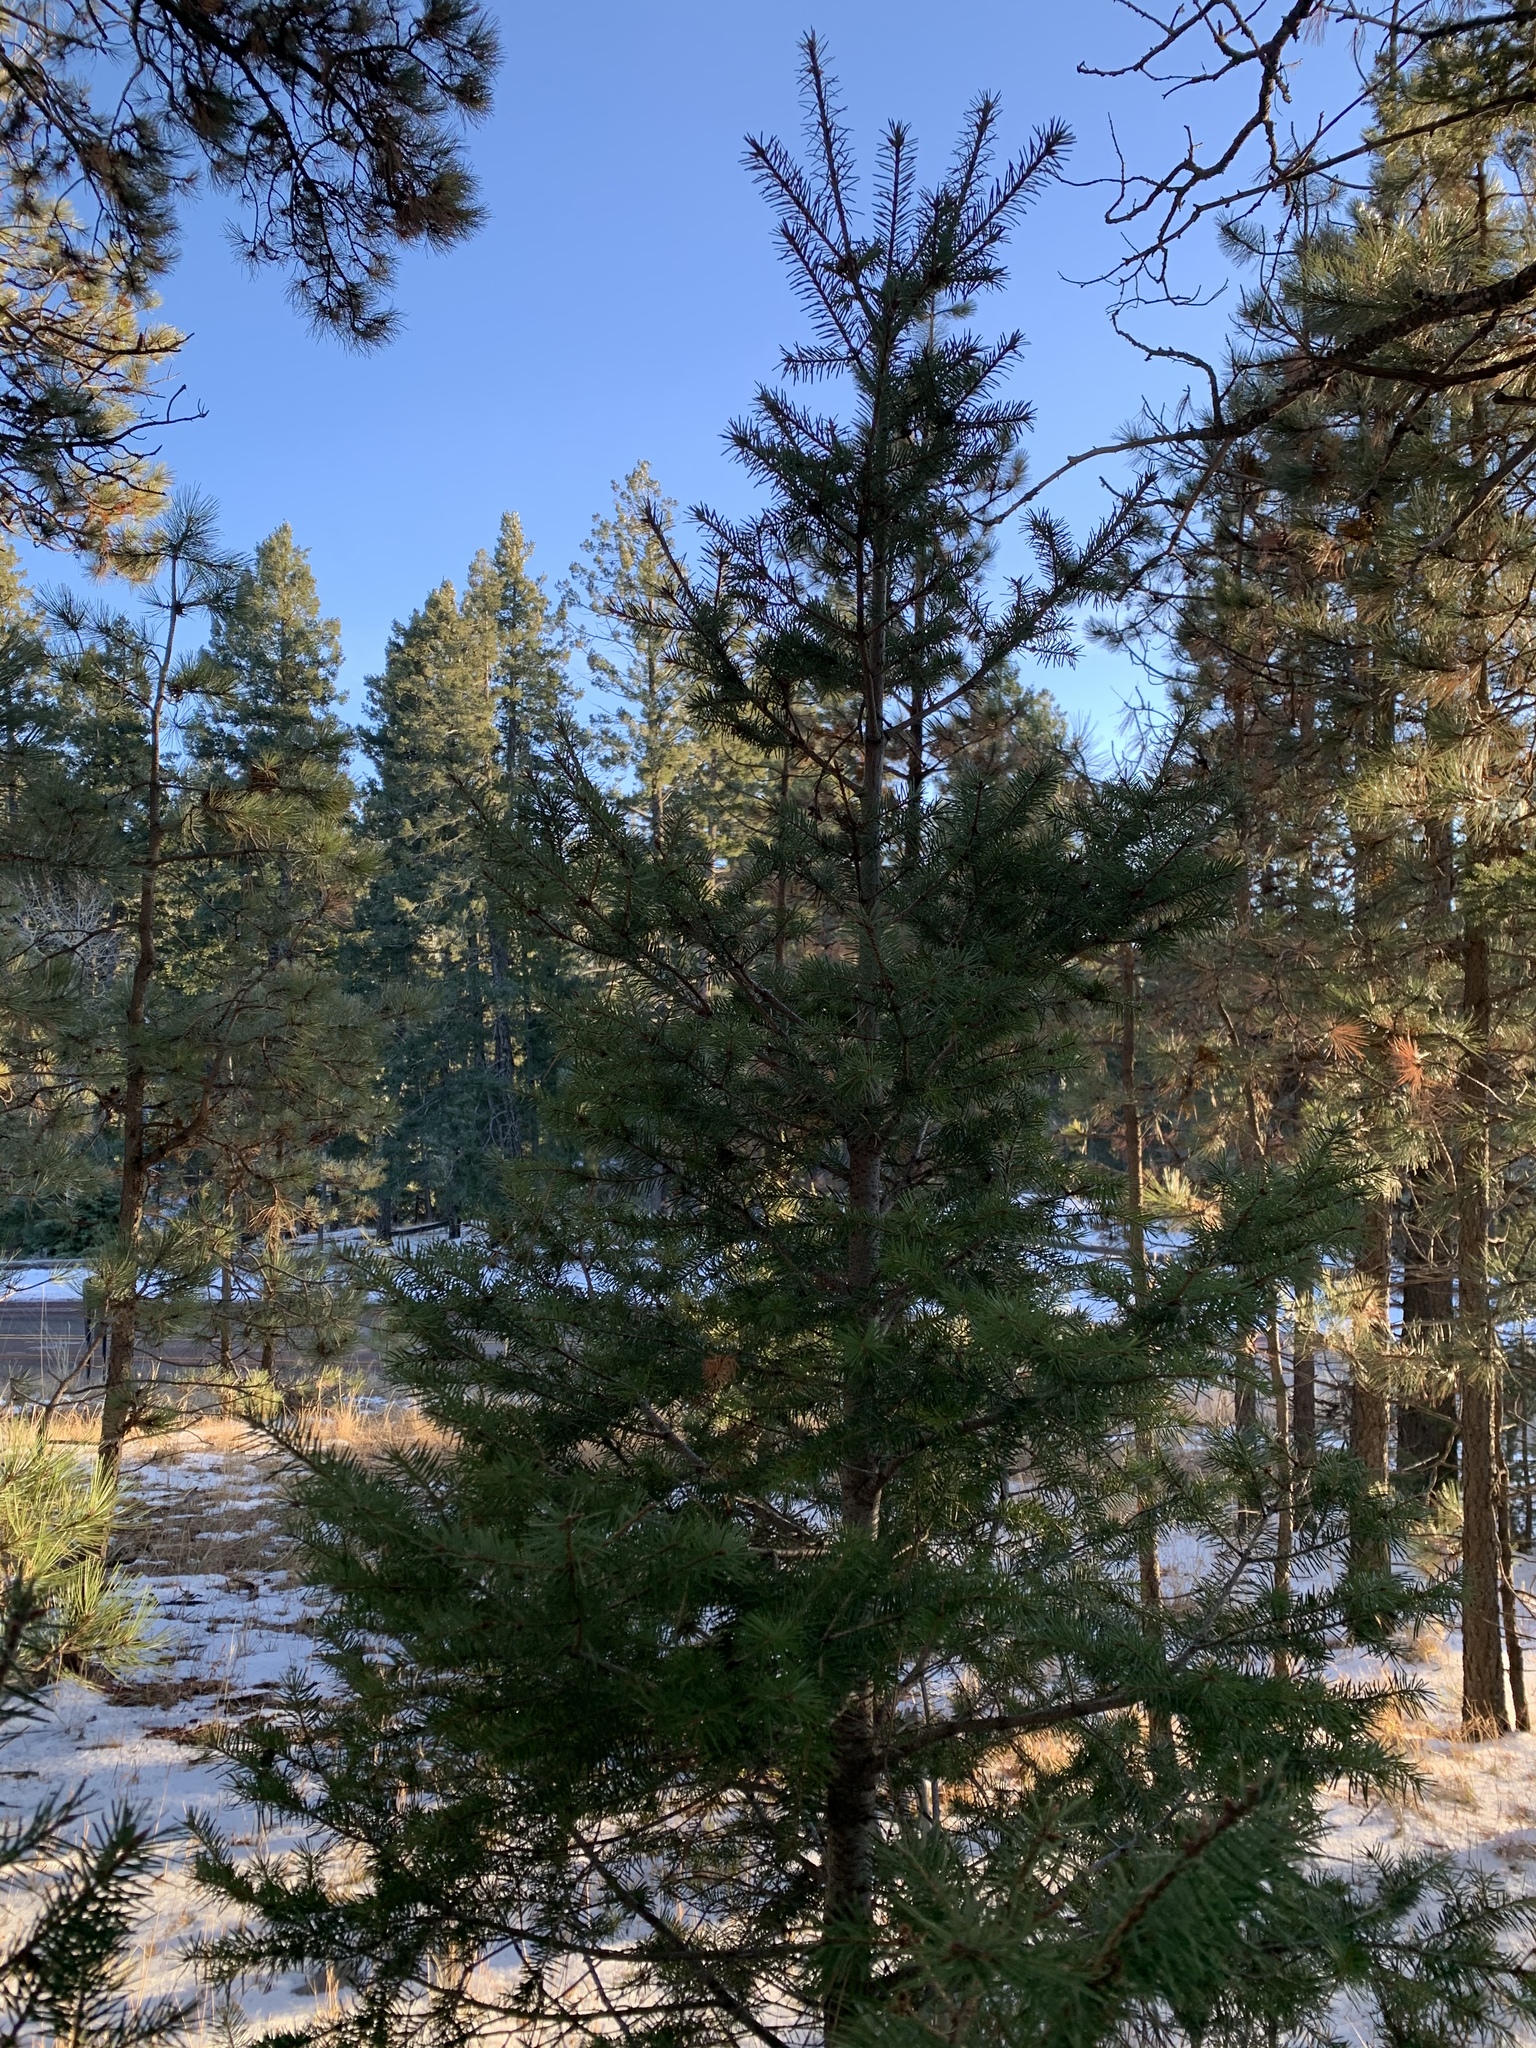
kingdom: Plantae
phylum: Tracheophyta
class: Pinopsida
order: Pinales
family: Pinaceae
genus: Pseudotsuga
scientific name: Pseudotsuga menziesii
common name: Douglas fir
